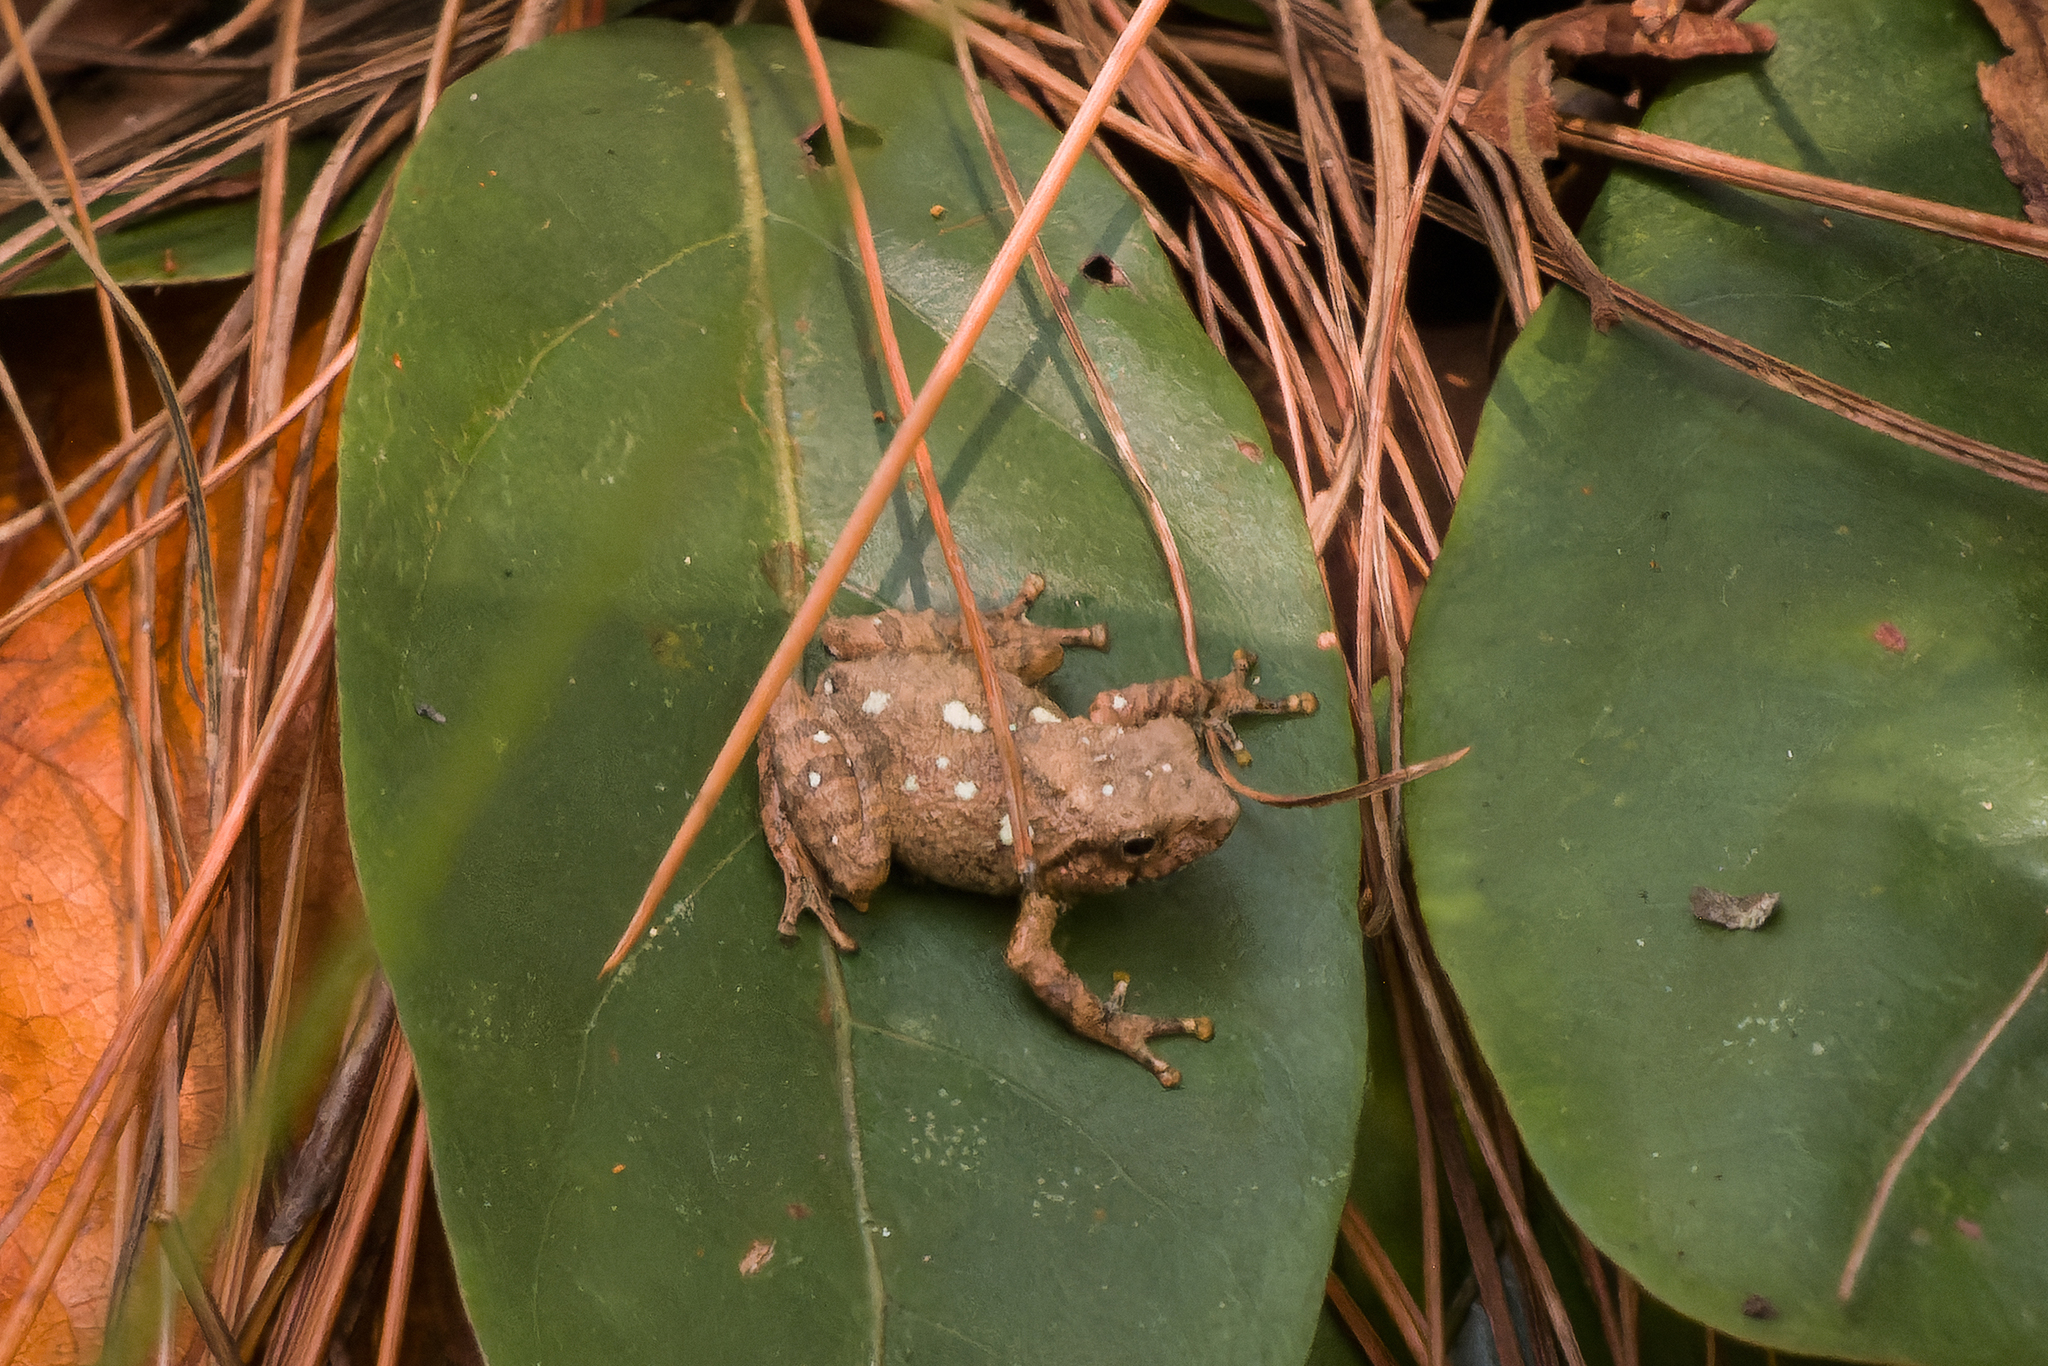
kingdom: Animalia
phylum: Chordata
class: Amphibia
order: Anura
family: Rhacophoridae
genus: Raorchestes
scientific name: Raorchestes parvulus
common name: Karin bubble-nest frog
